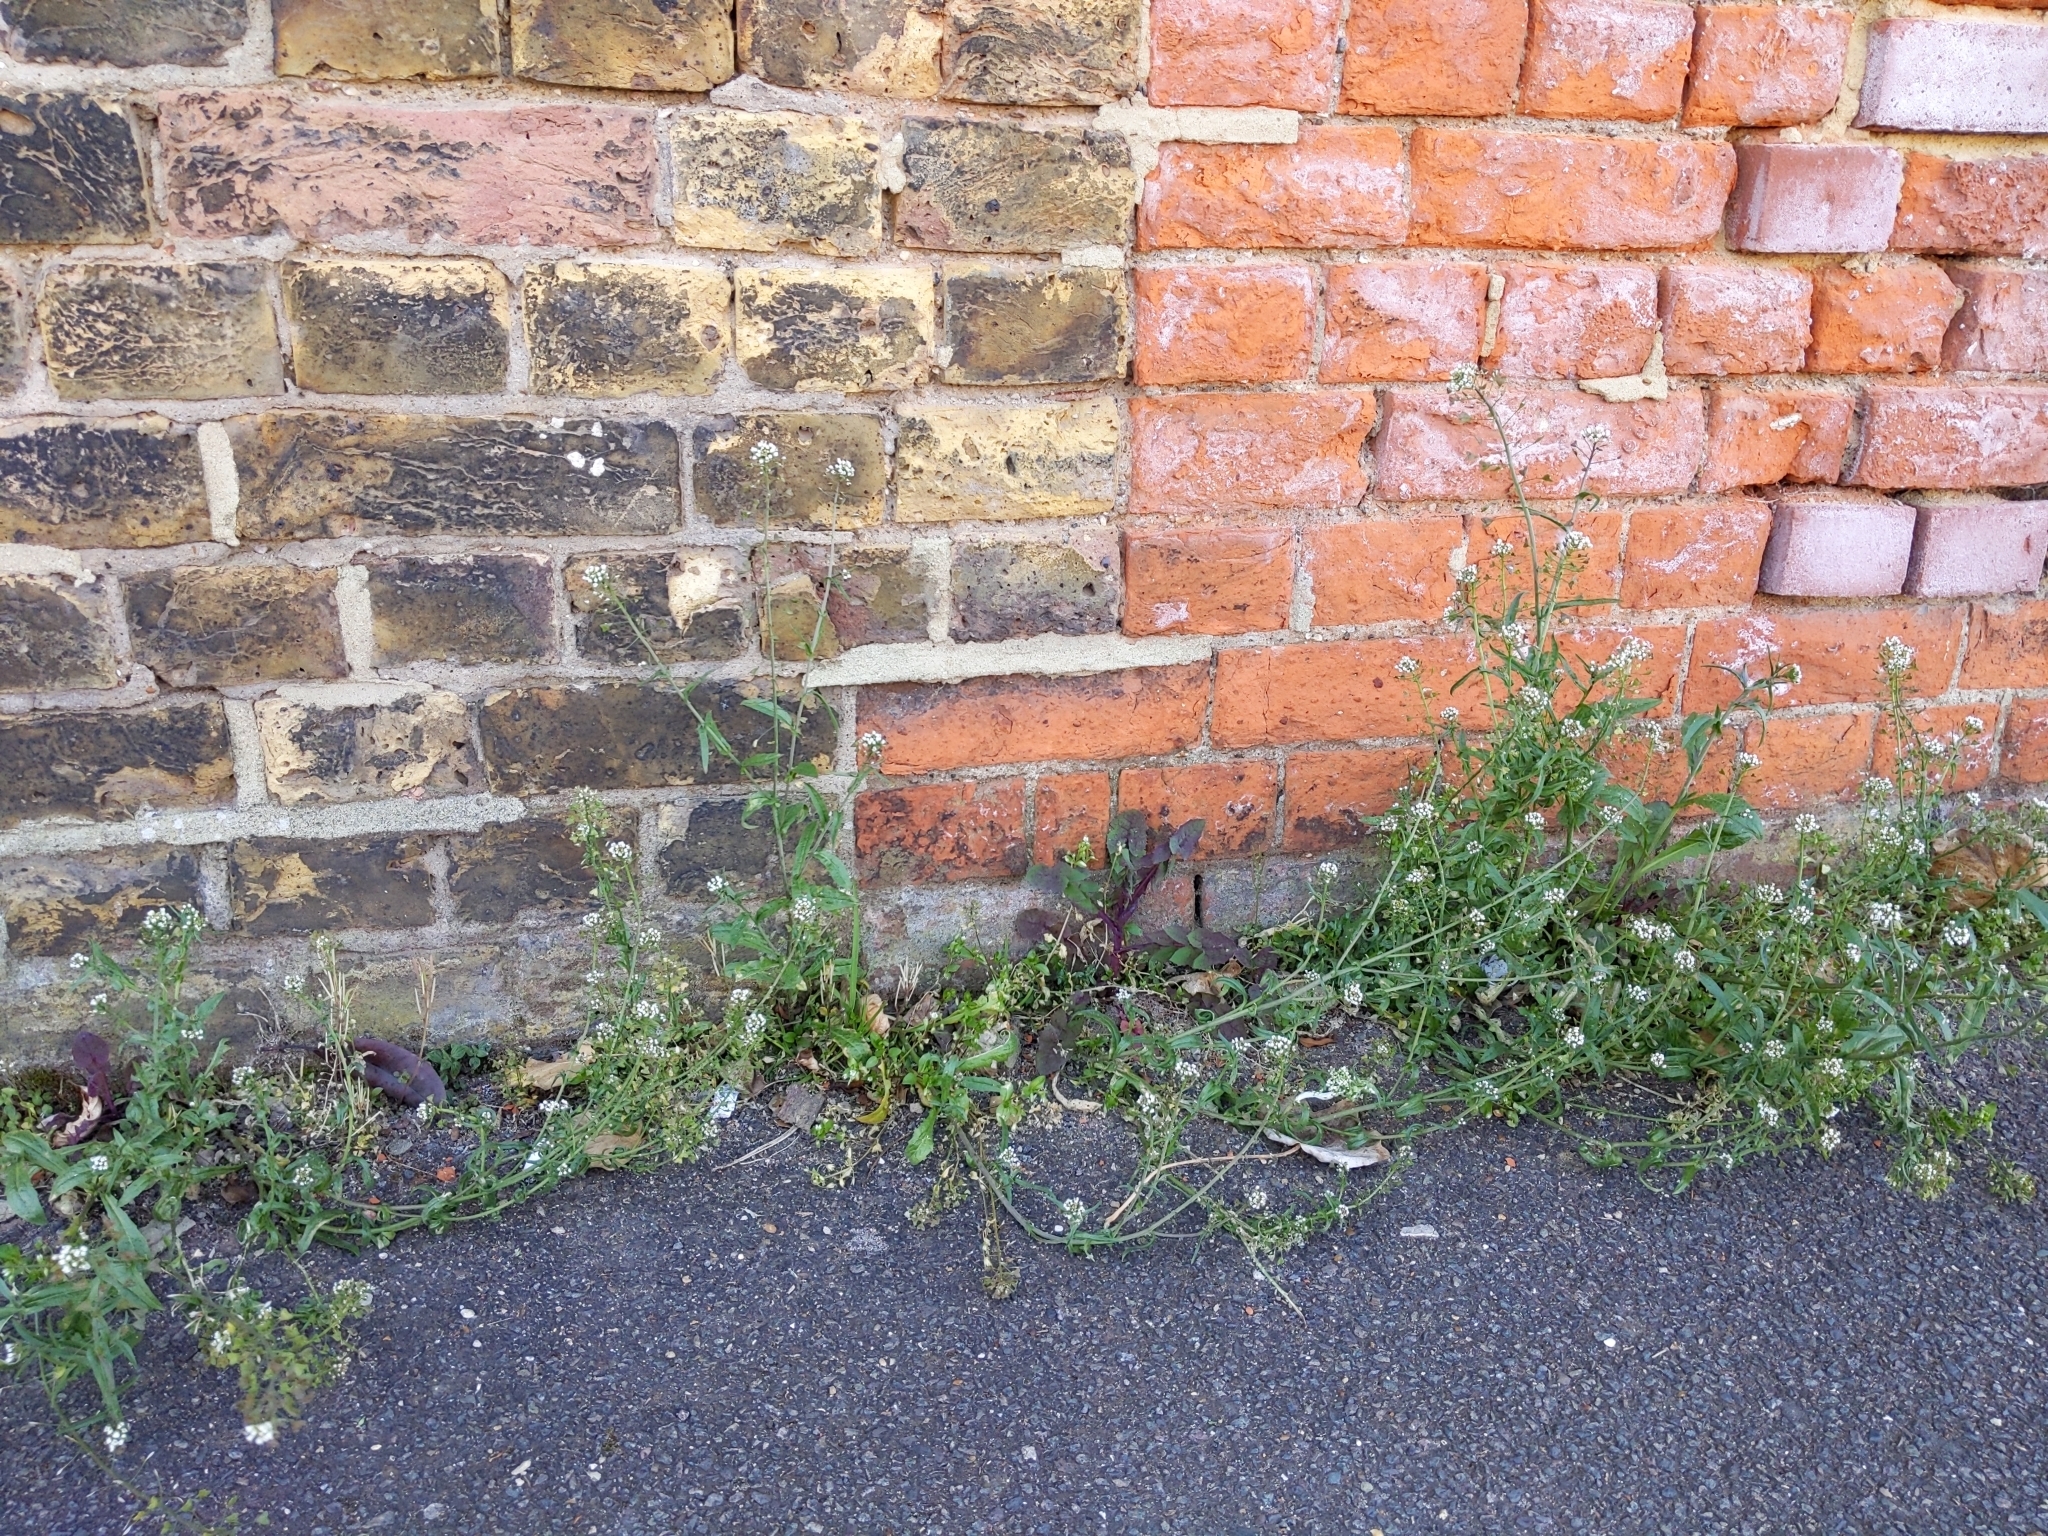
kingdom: Plantae
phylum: Tracheophyta
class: Magnoliopsida
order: Brassicales
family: Brassicaceae
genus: Capsella
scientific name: Capsella bursa-pastoris
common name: Shepherd's purse
